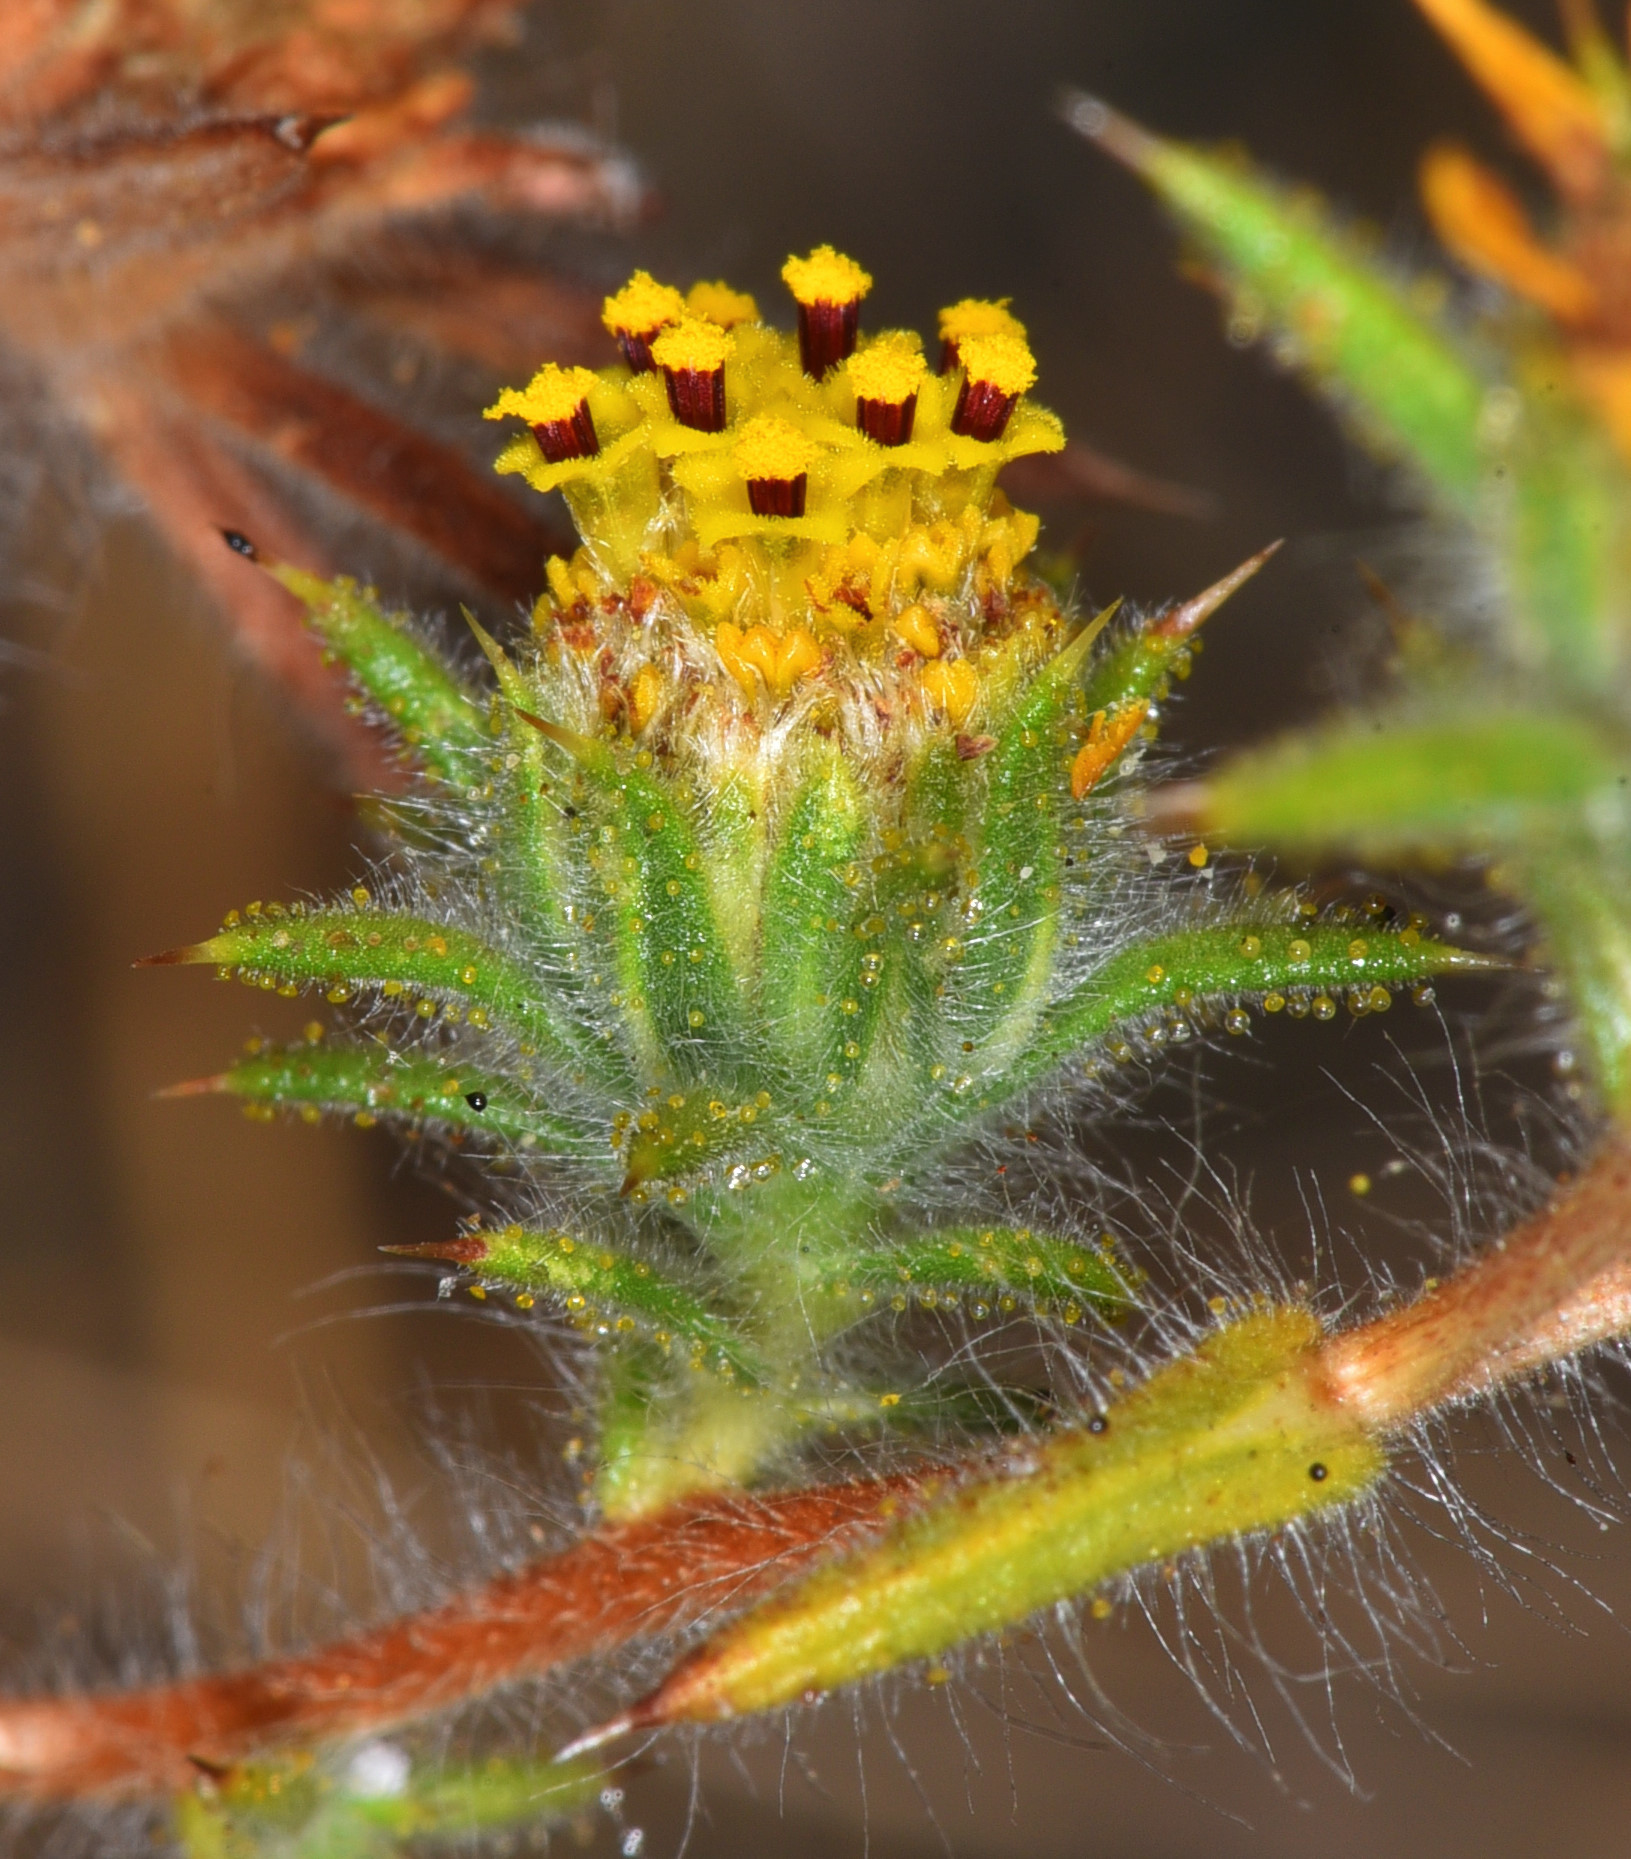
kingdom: Plantae
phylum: Tracheophyta
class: Magnoliopsida
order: Asterales
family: Asteraceae
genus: Centromadia
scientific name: Centromadia fitchii
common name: Fitch's spikeweed
